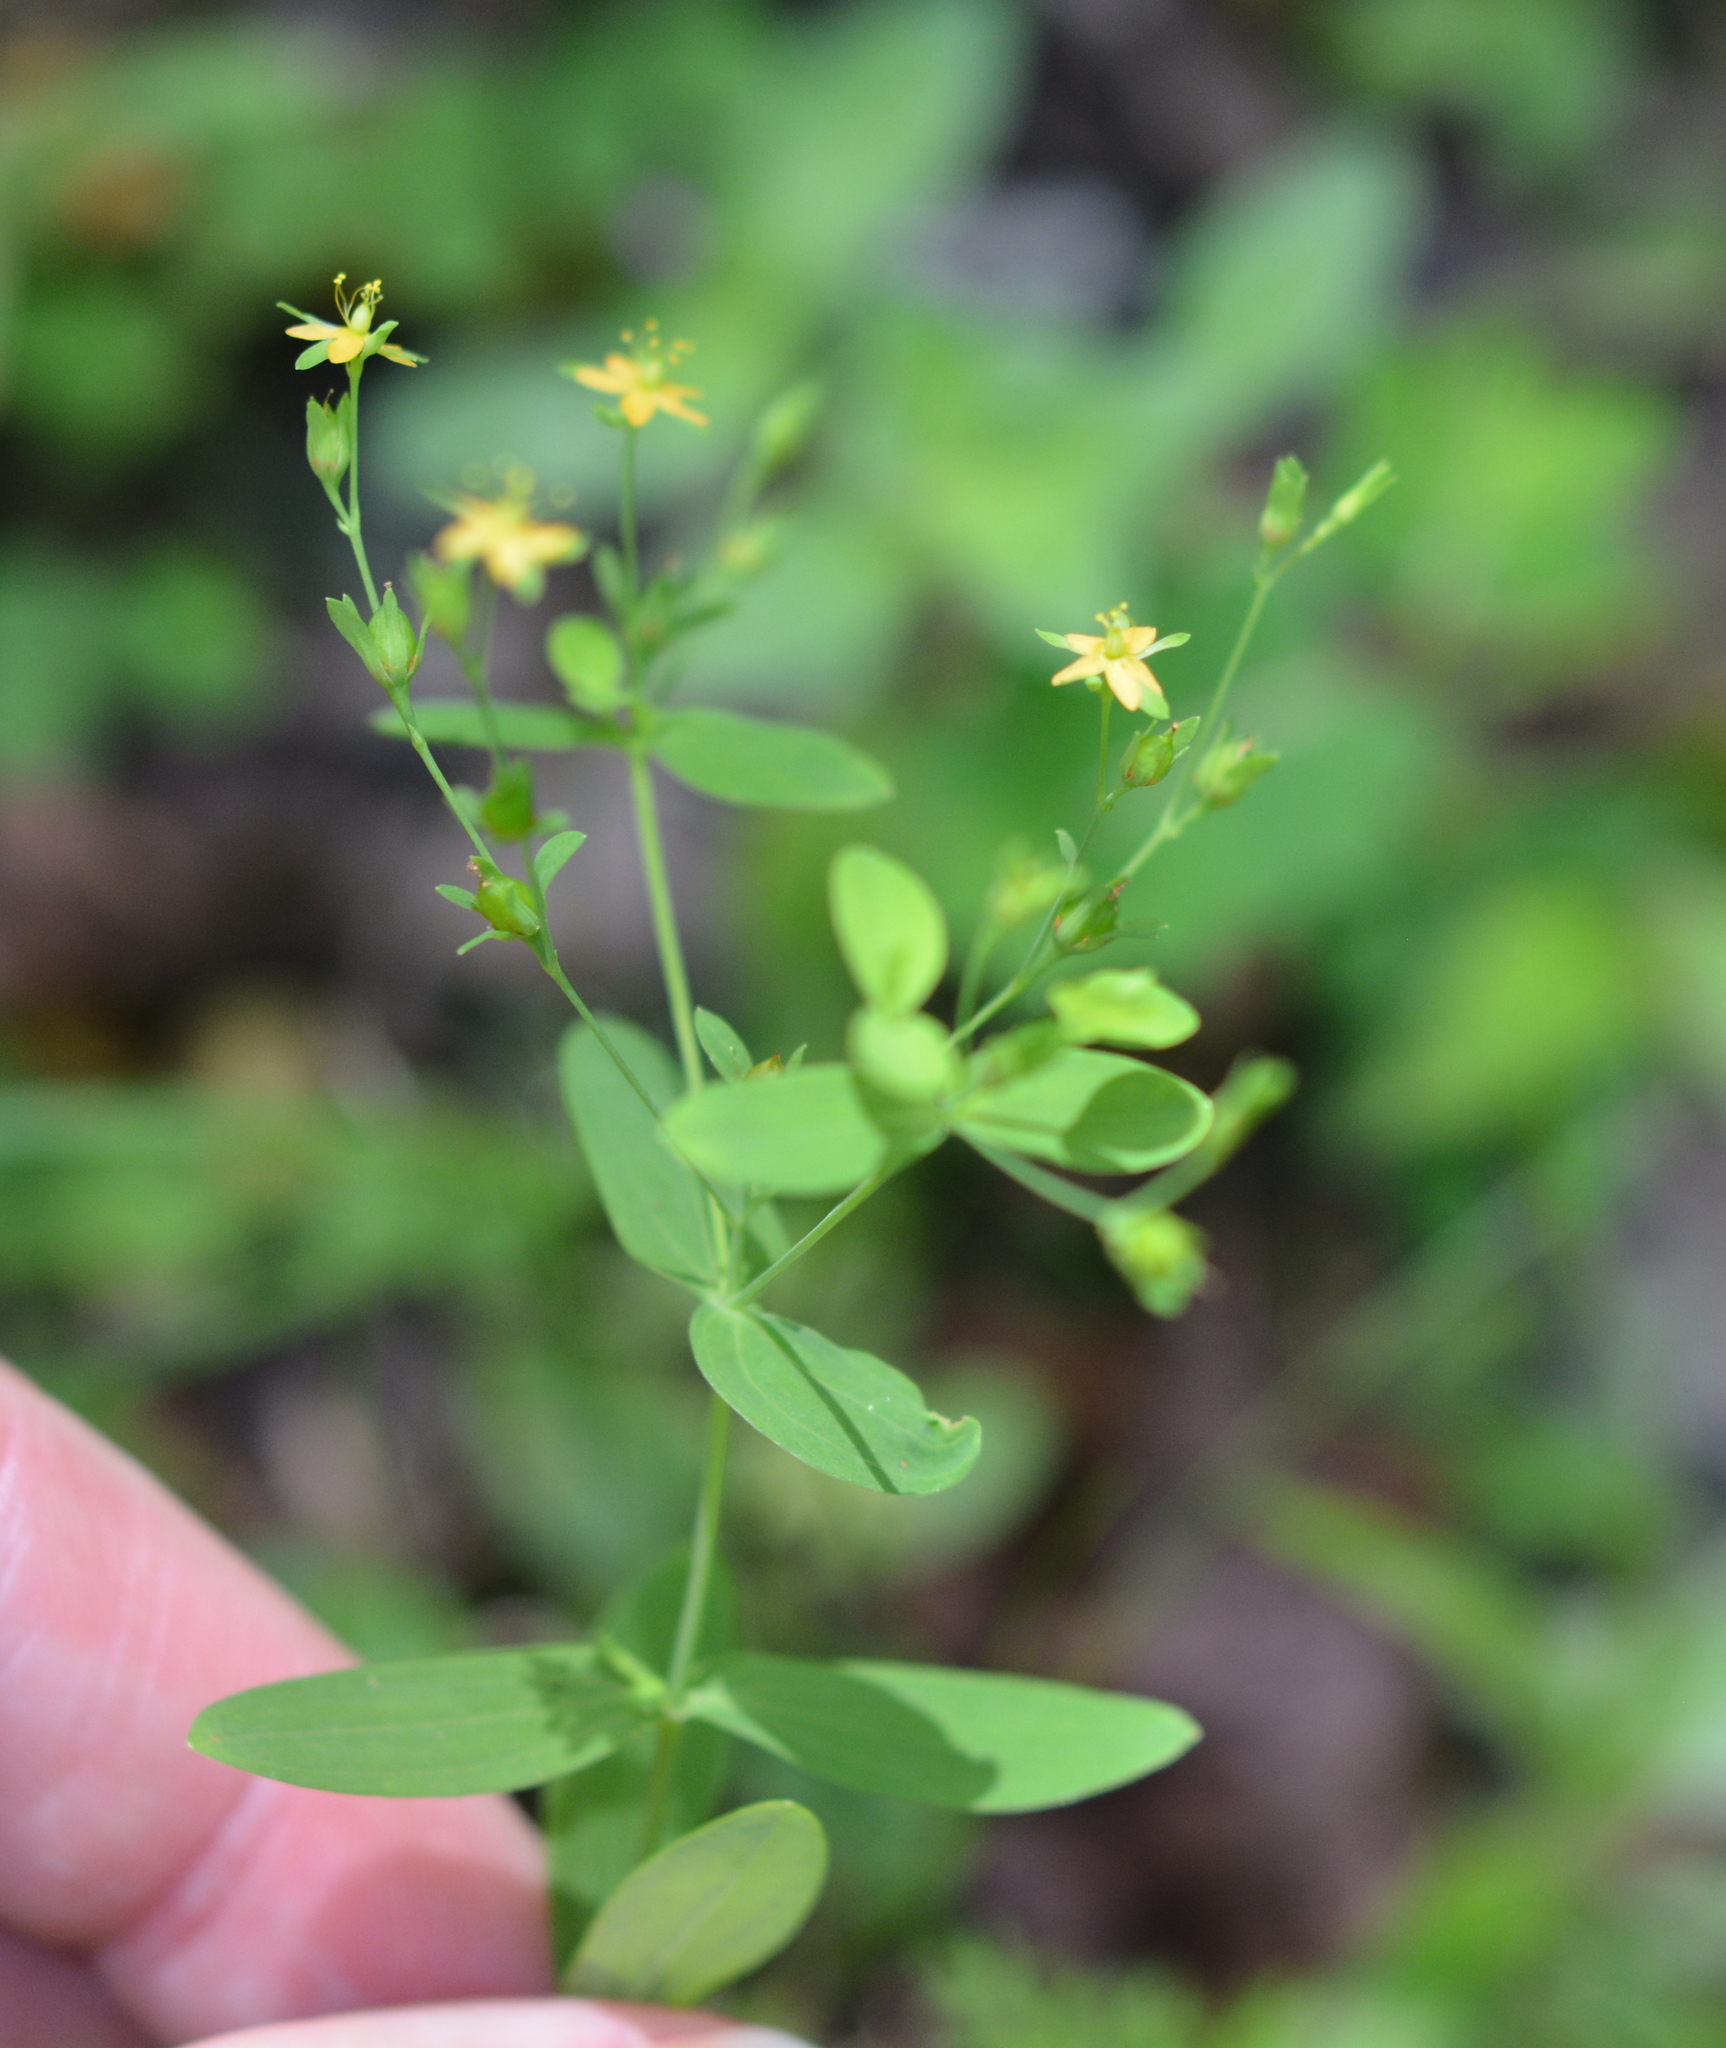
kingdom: Plantae
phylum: Tracheophyta
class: Magnoliopsida
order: Malpighiales
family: Hypericaceae
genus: Hypericum
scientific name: Hypericum mutilum
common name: Dwarf st. john's-wort
